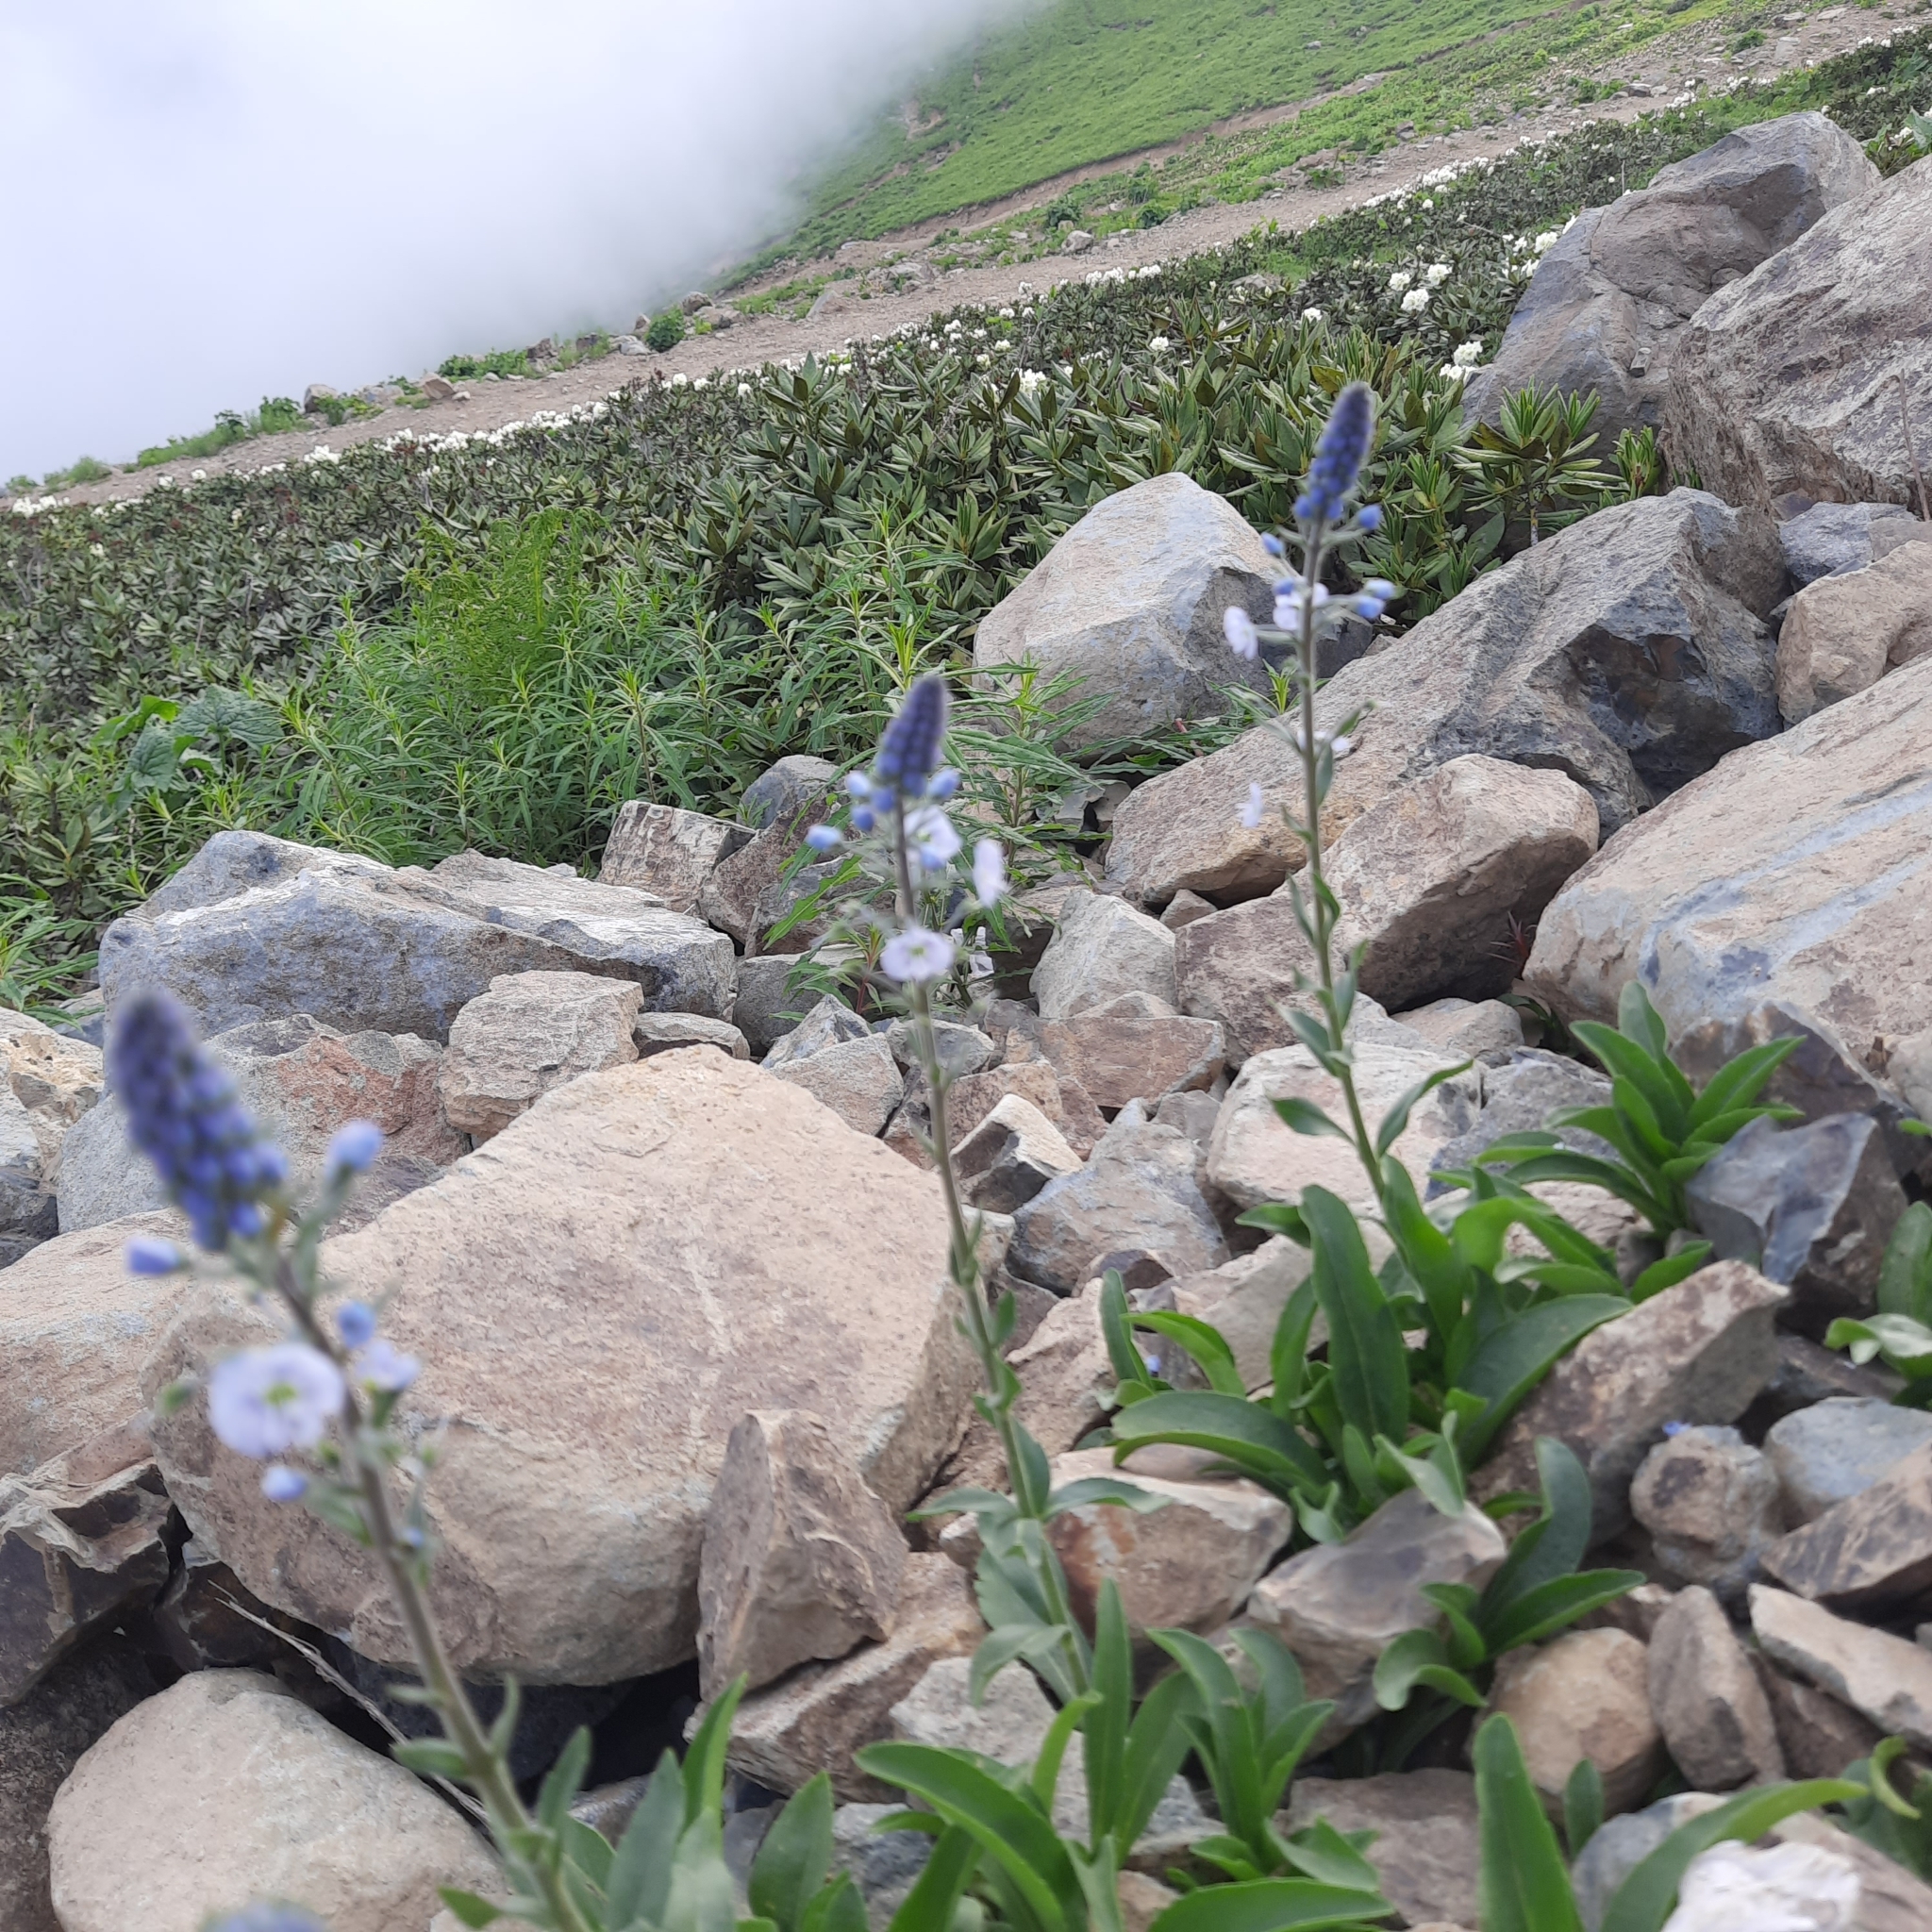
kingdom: Plantae
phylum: Tracheophyta
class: Magnoliopsida
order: Lamiales
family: Plantaginaceae
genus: Veronica
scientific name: Veronica gentianoides
